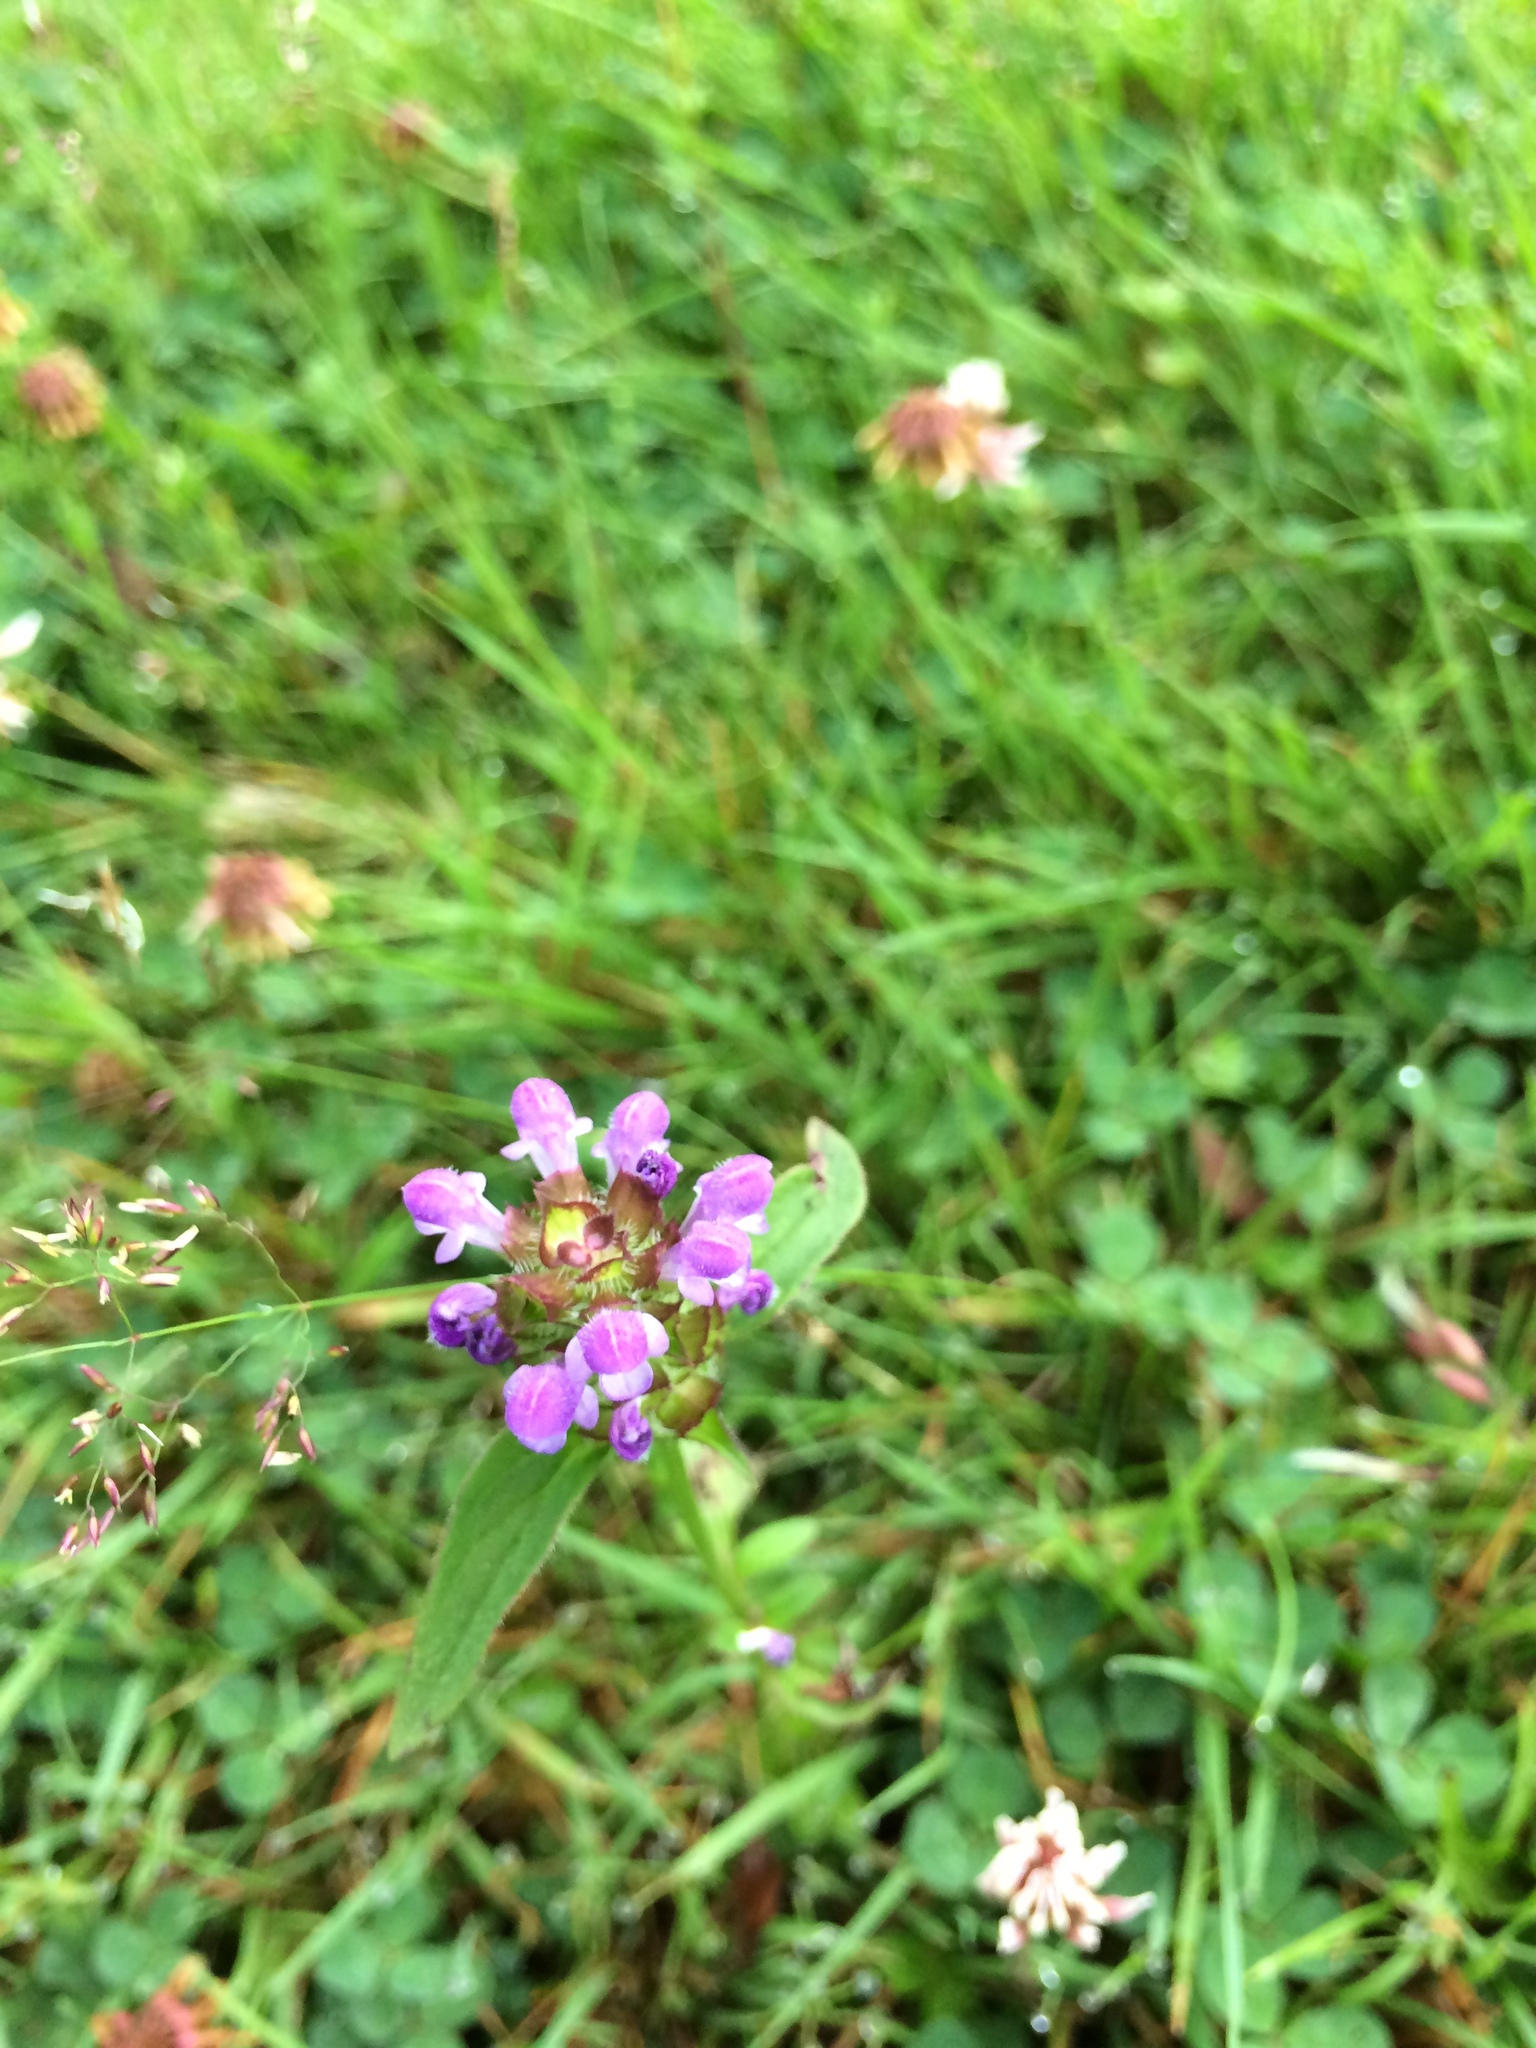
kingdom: Plantae
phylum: Tracheophyta
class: Magnoliopsida
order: Lamiales
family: Lamiaceae
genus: Prunella
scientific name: Prunella vulgaris
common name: Heal-all
